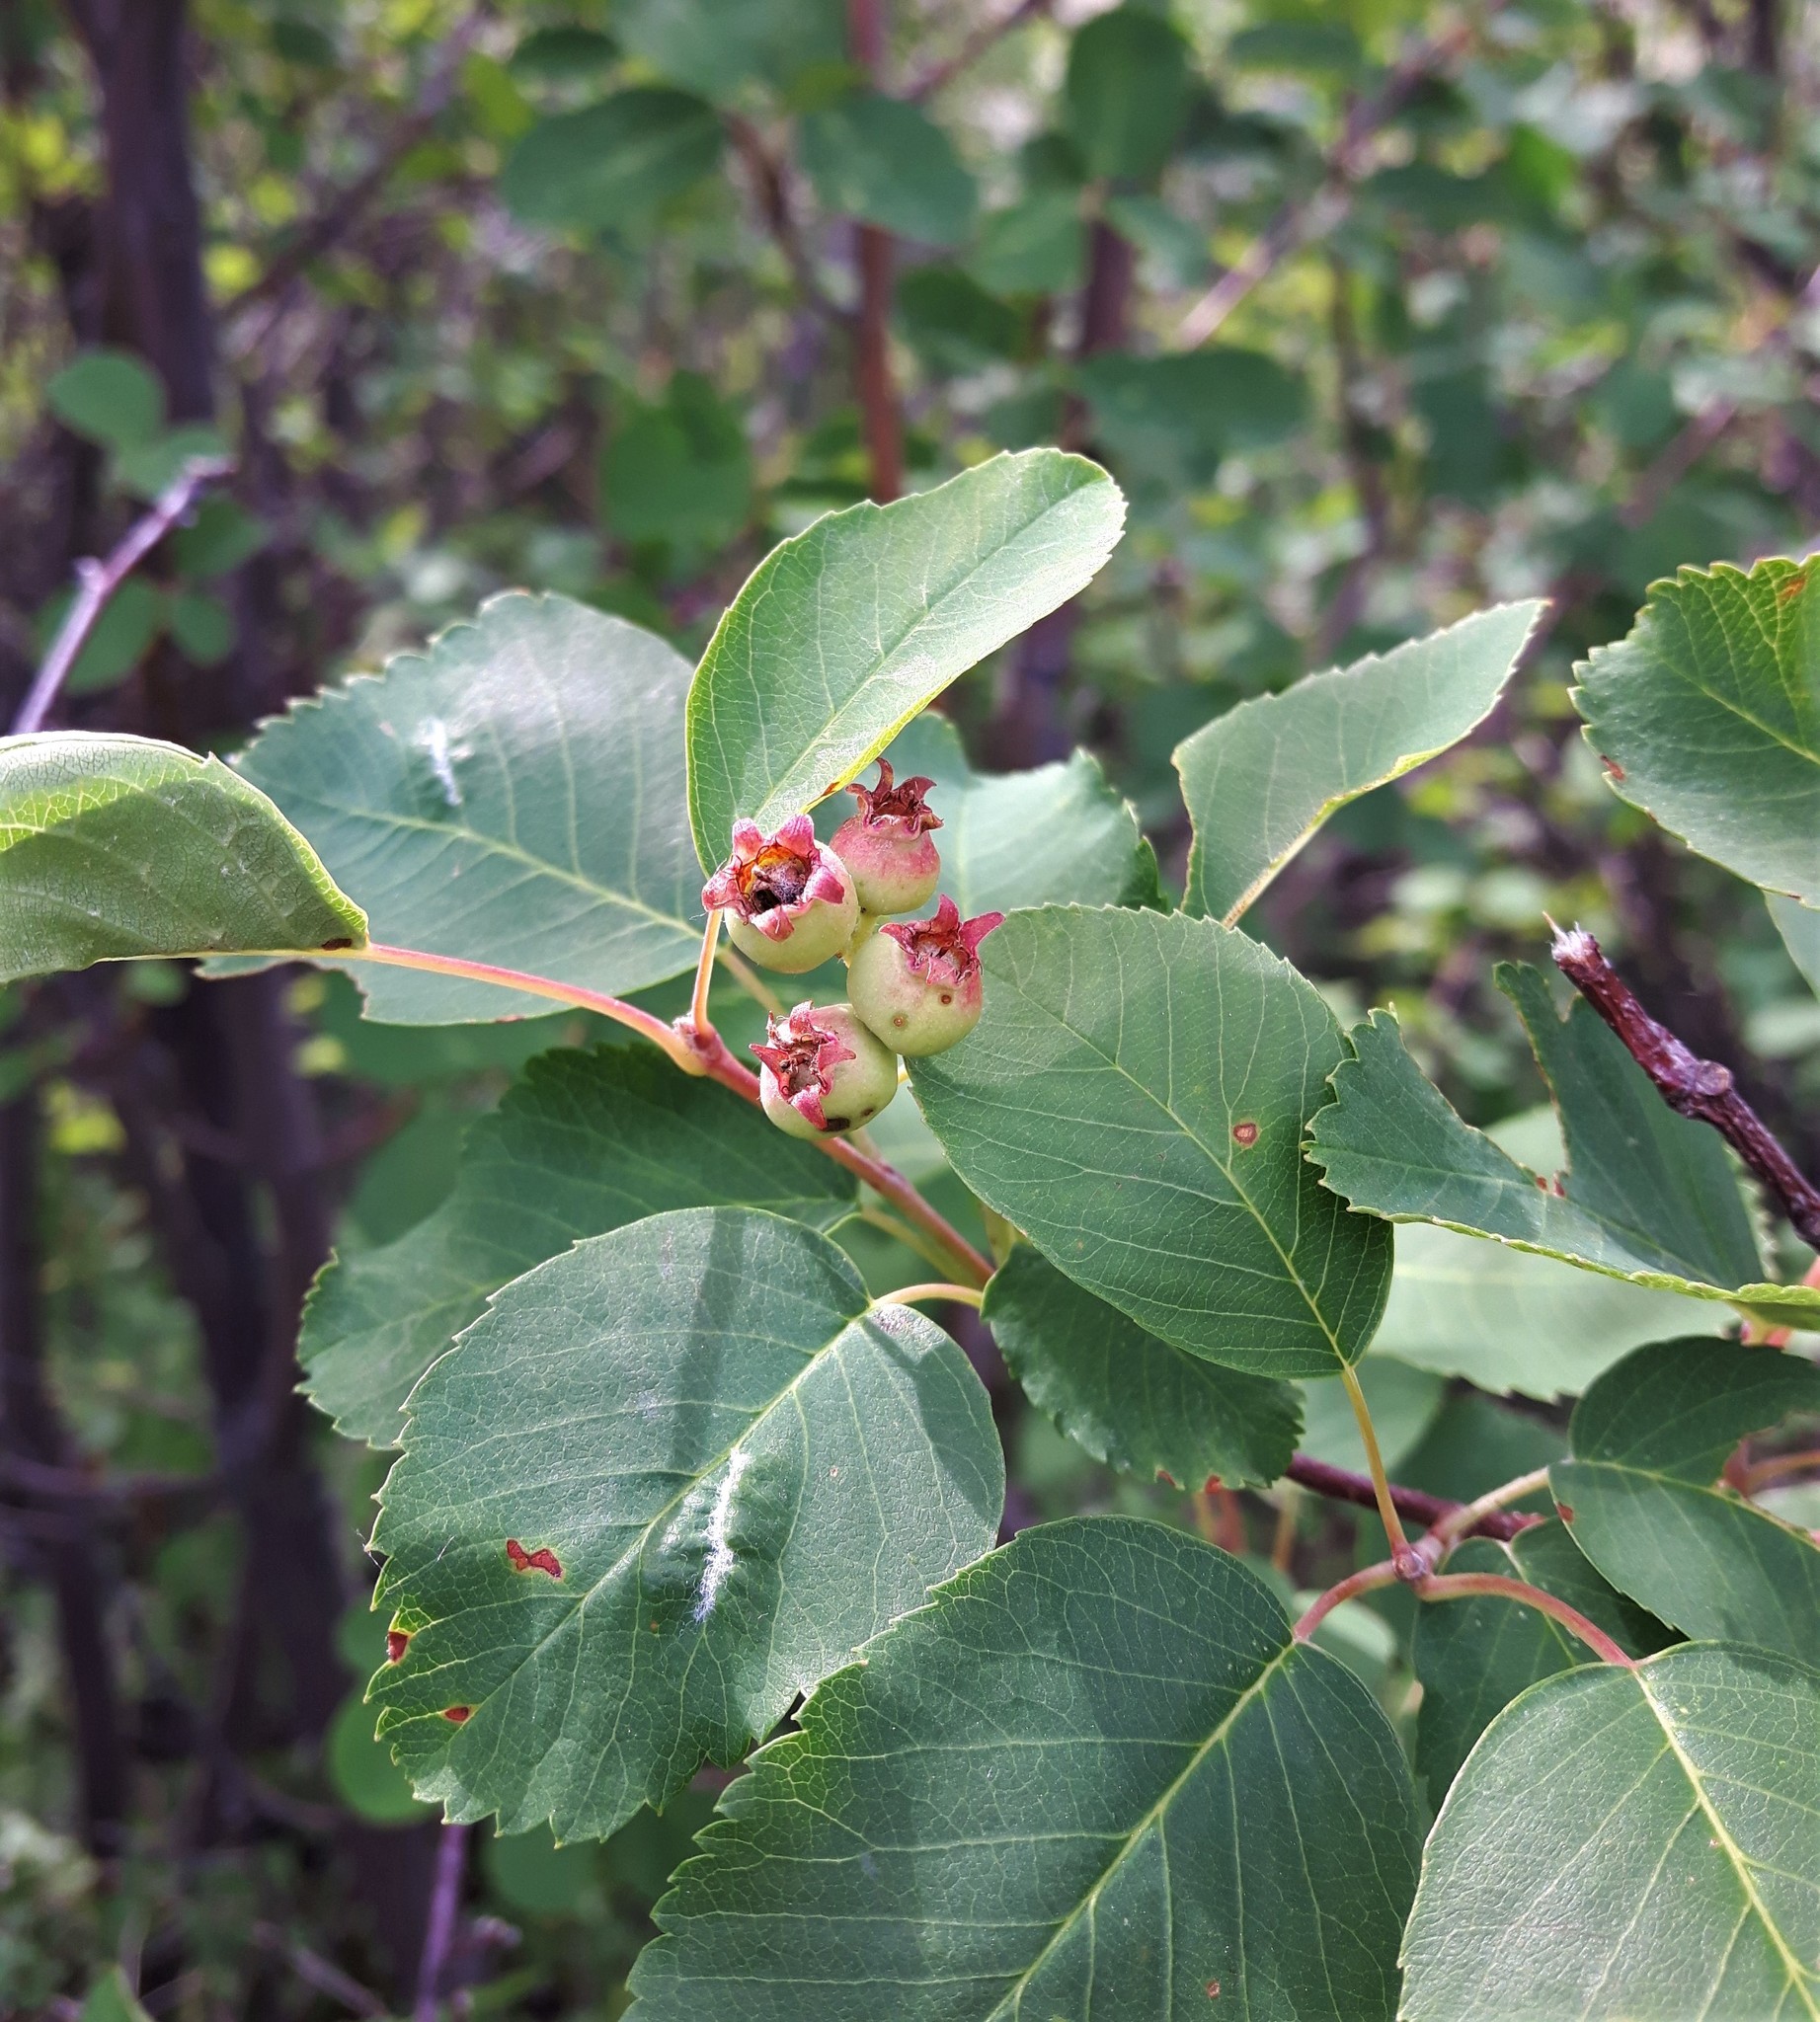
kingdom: Plantae
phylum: Tracheophyta
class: Magnoliopsida
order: Rosales
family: Rosaceae
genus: Amelanchier
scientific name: Amelanchier alnifolia
